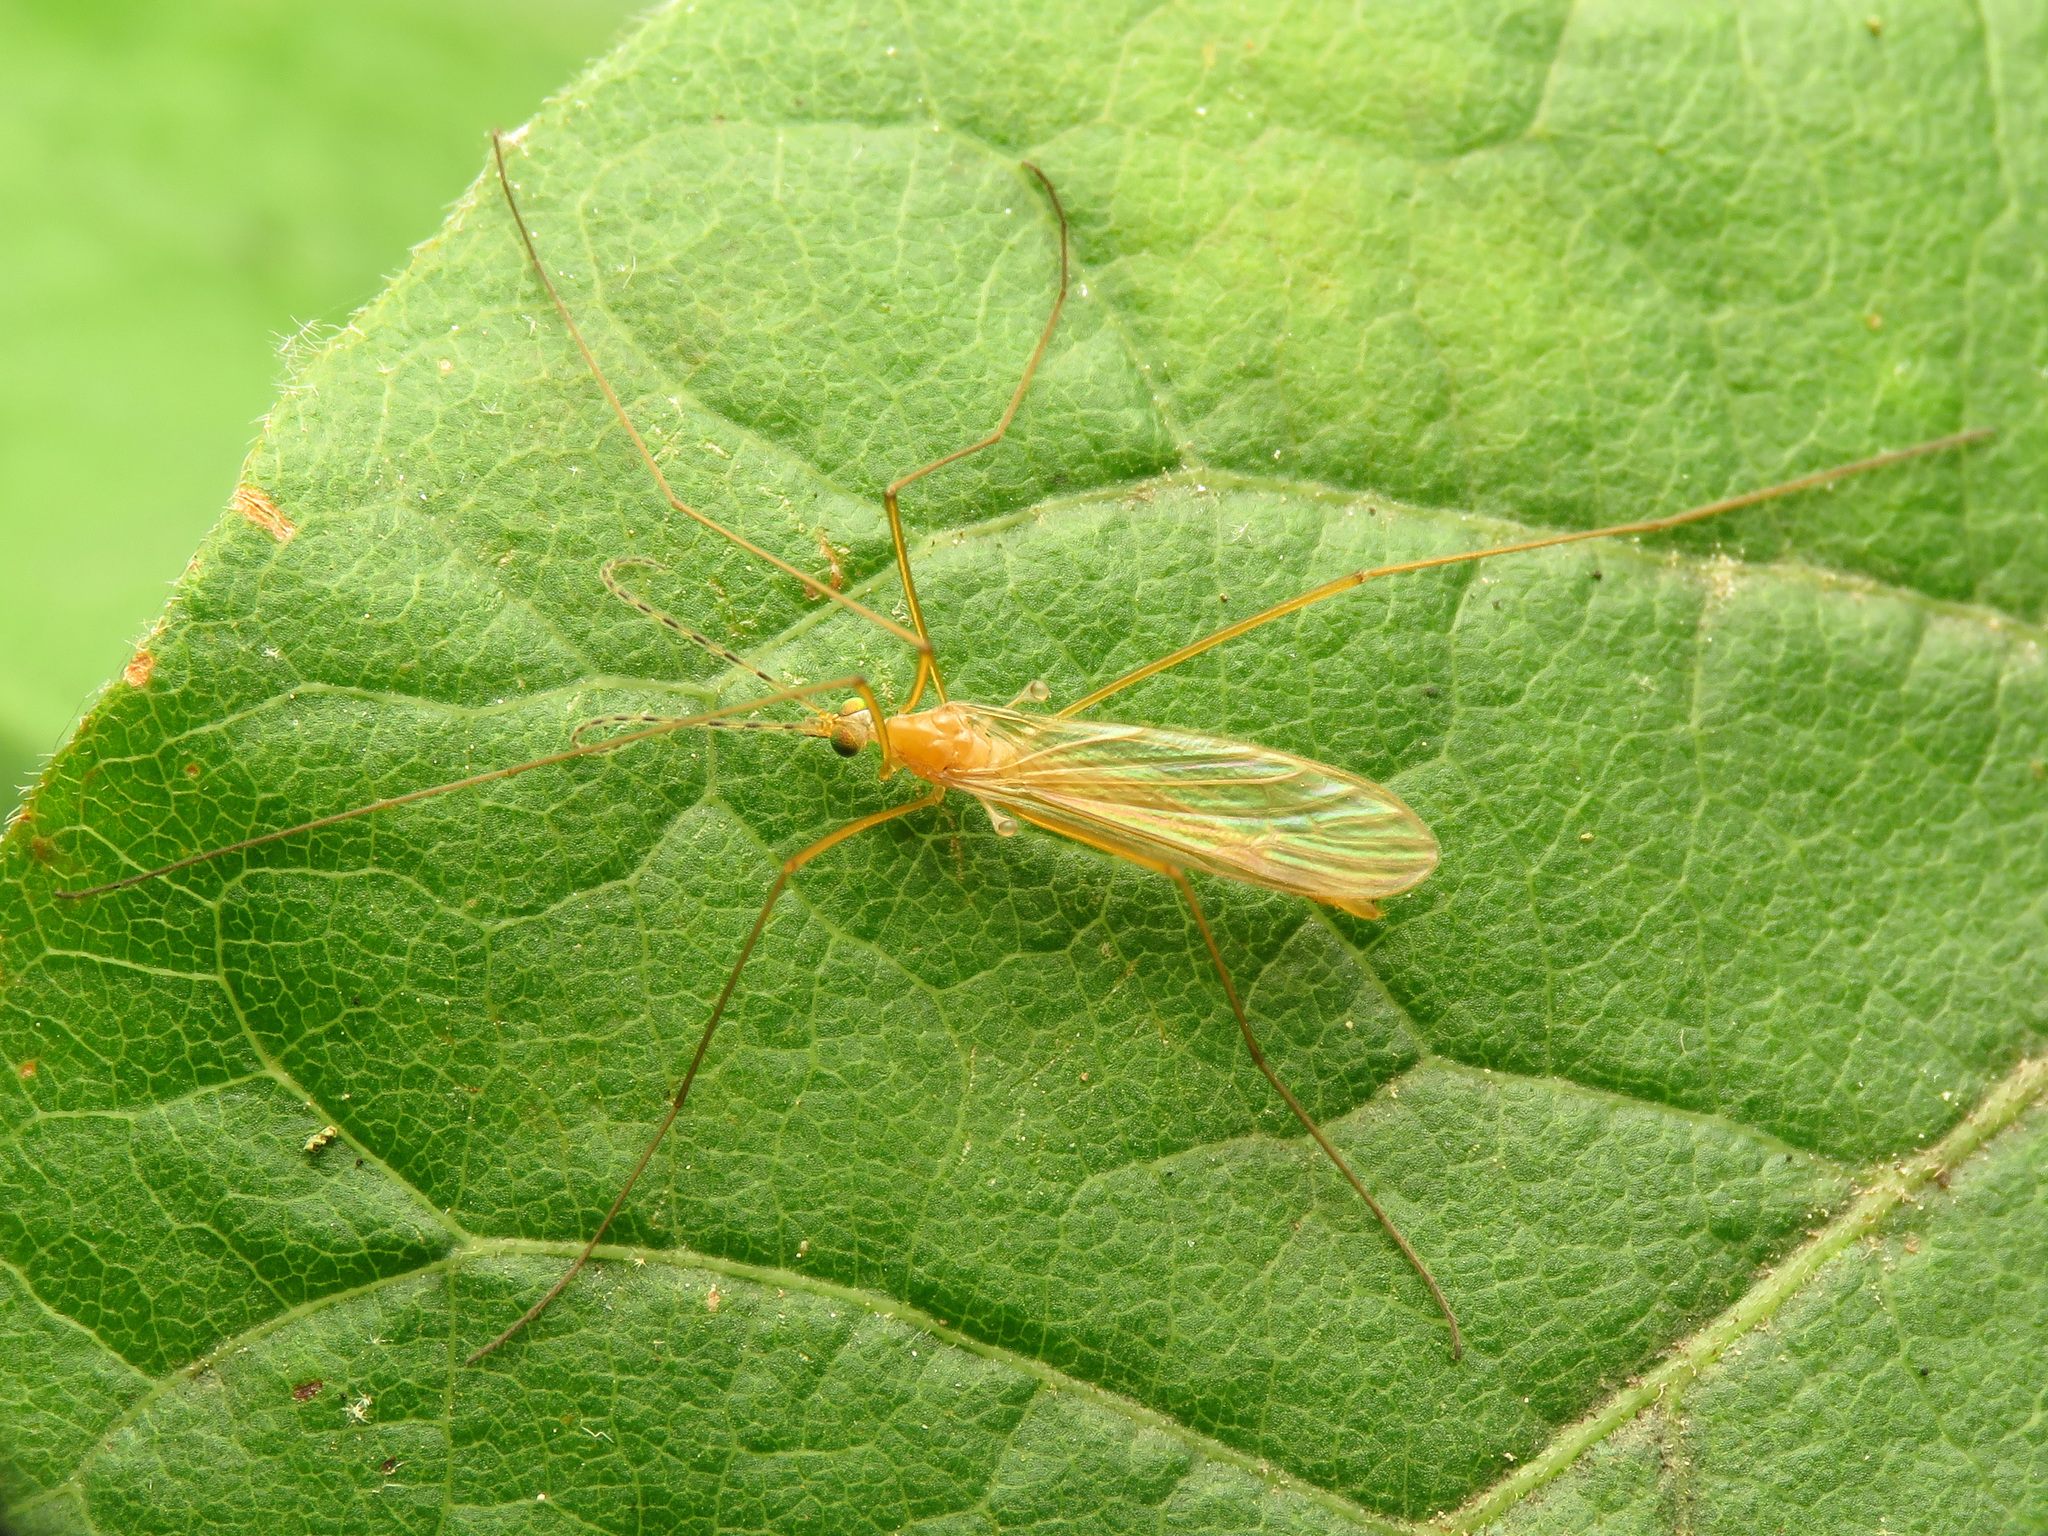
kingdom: Animalia
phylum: Arthropoda
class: Insecta
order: Diptera
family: Limoniidae
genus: Atarba
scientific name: Atarba picticornis
